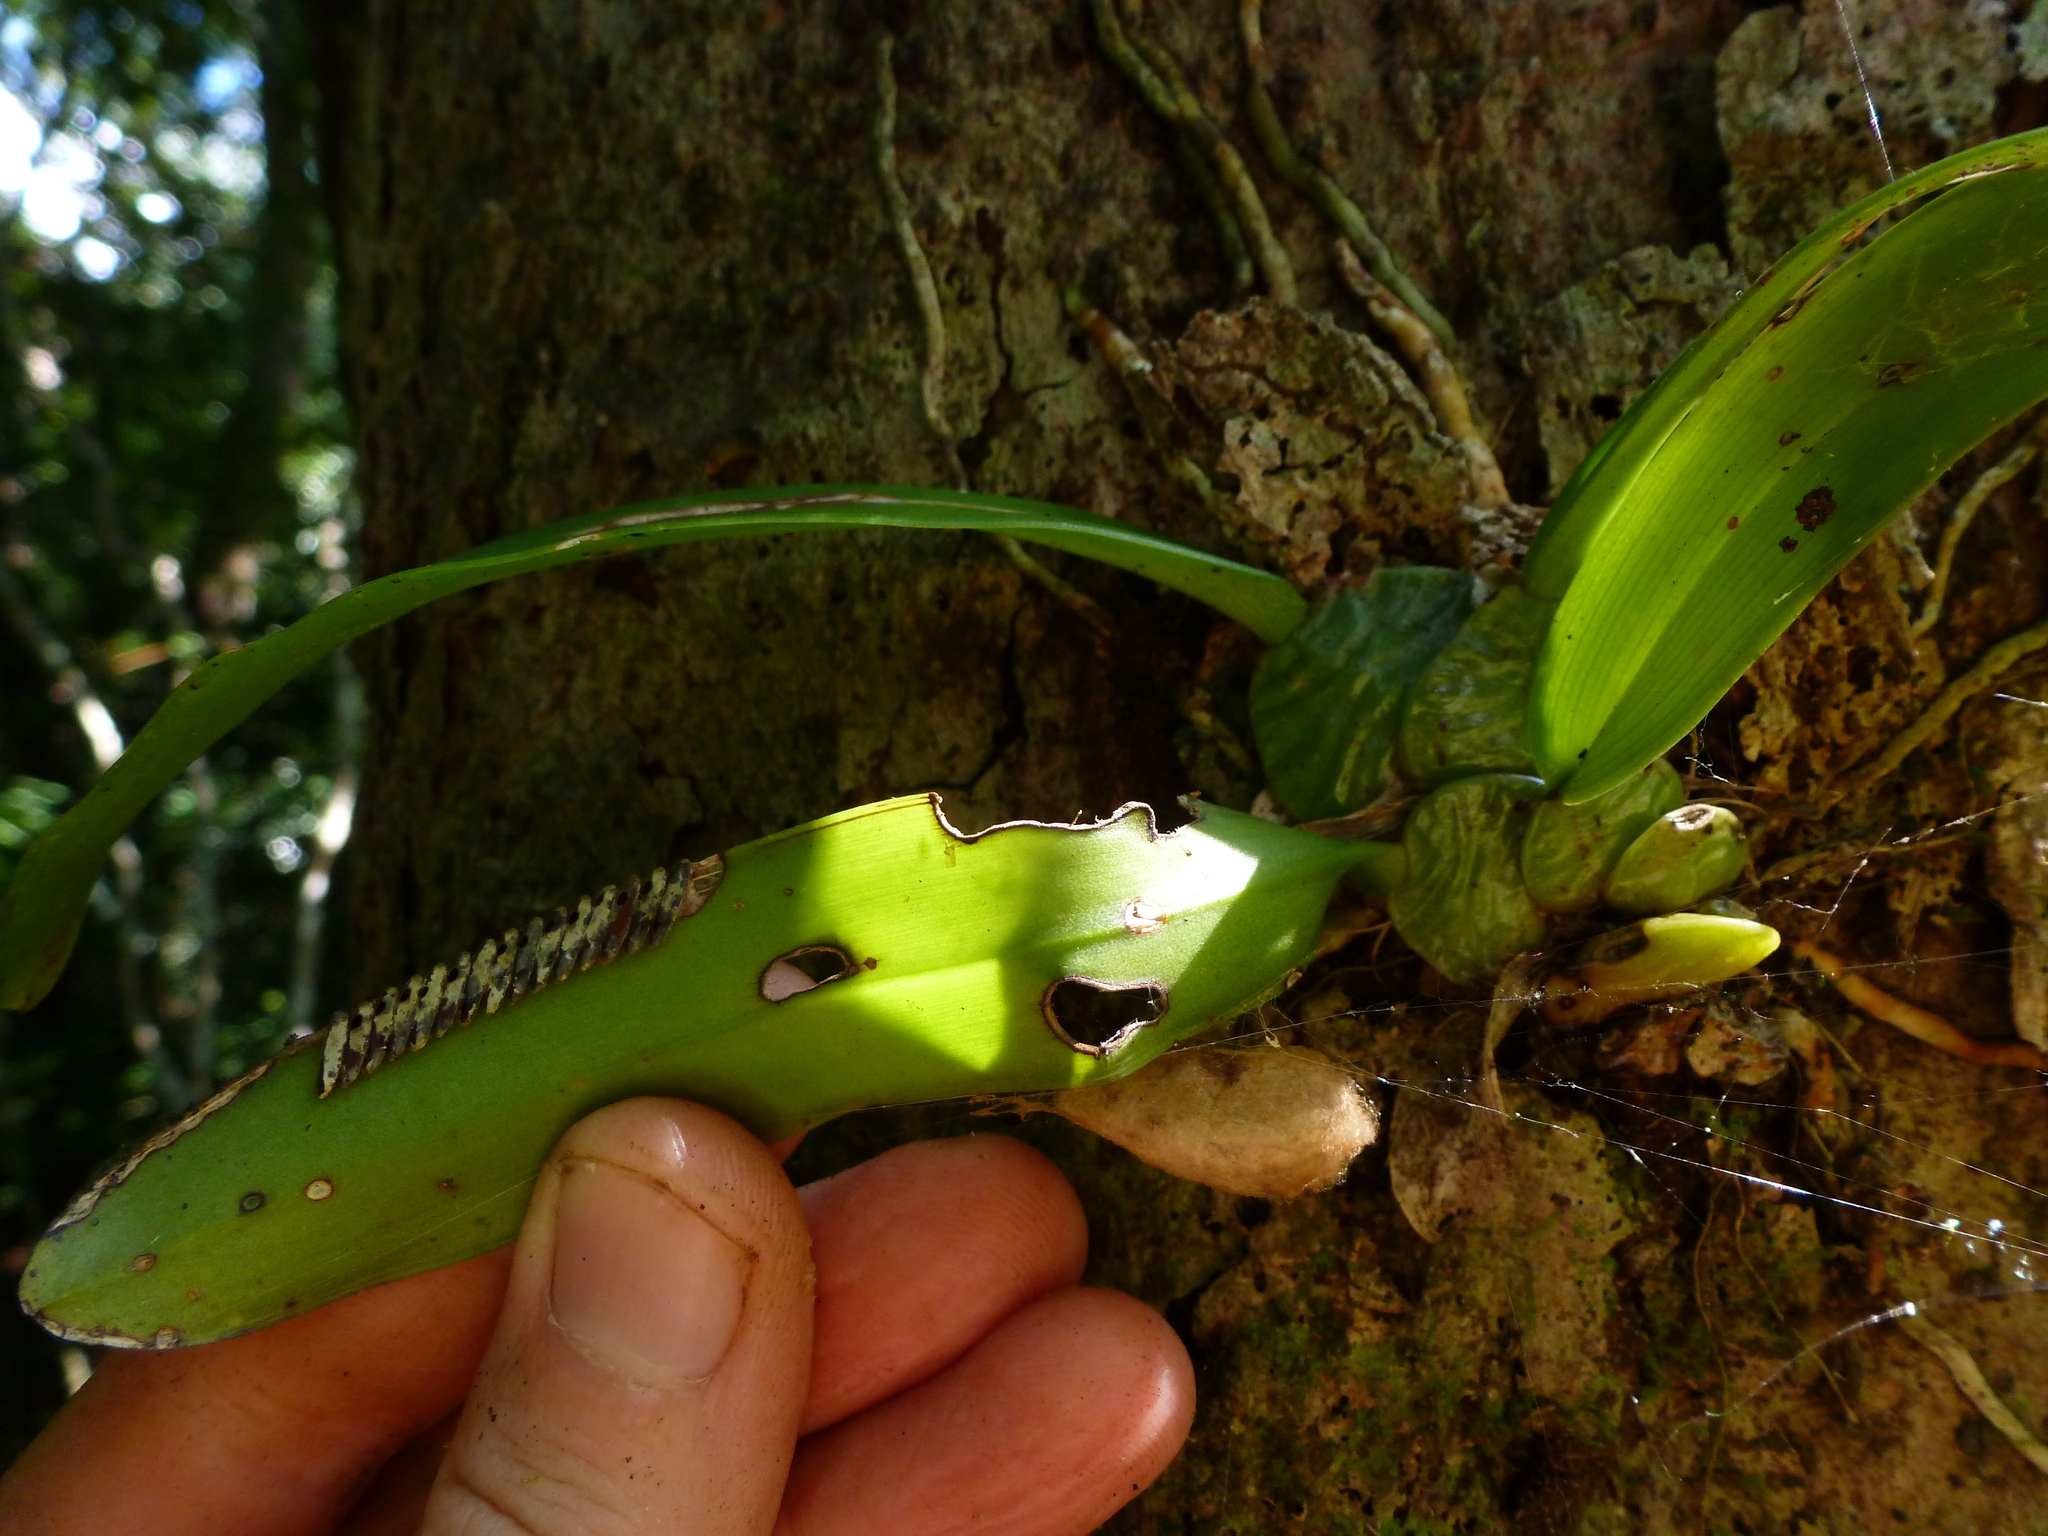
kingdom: Plantae
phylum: Tracheophyta
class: Liliopsida
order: Asparagales
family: Orchidaceae
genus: Rossioglossum
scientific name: Rossioglossum ampliatum
